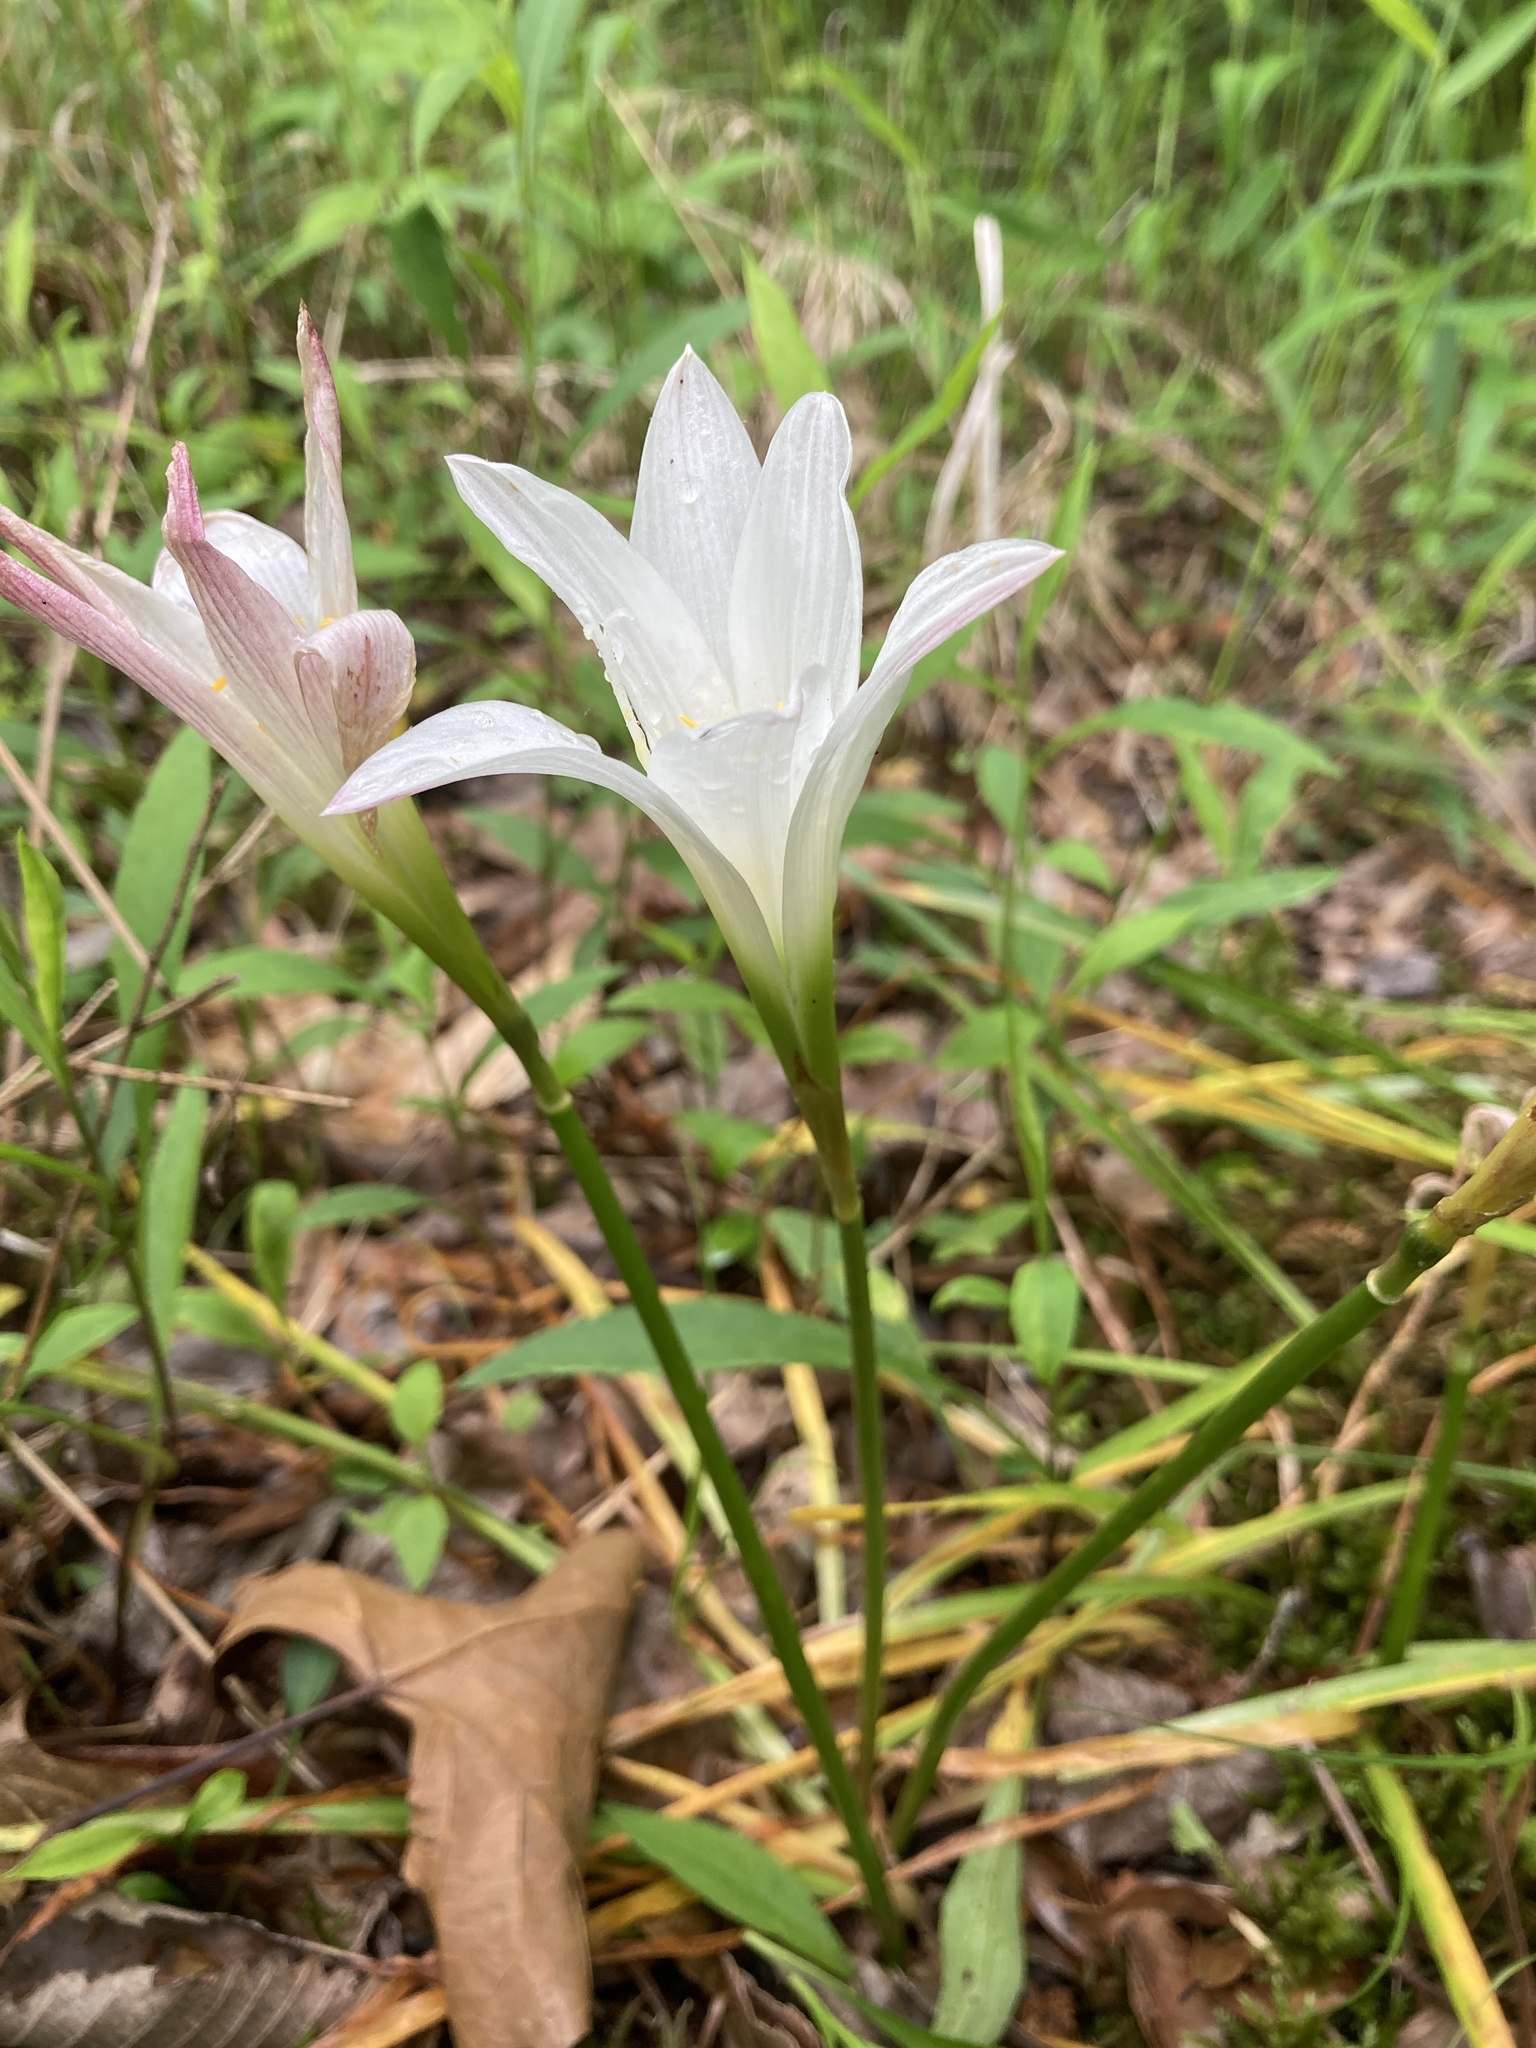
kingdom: Plantae
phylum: Tracheophyta
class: Liliopsida
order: Asparagales
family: Amaryllidaceae
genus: Zephyranthes
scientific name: Zephyranthes atamasco
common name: Atamasco lily
